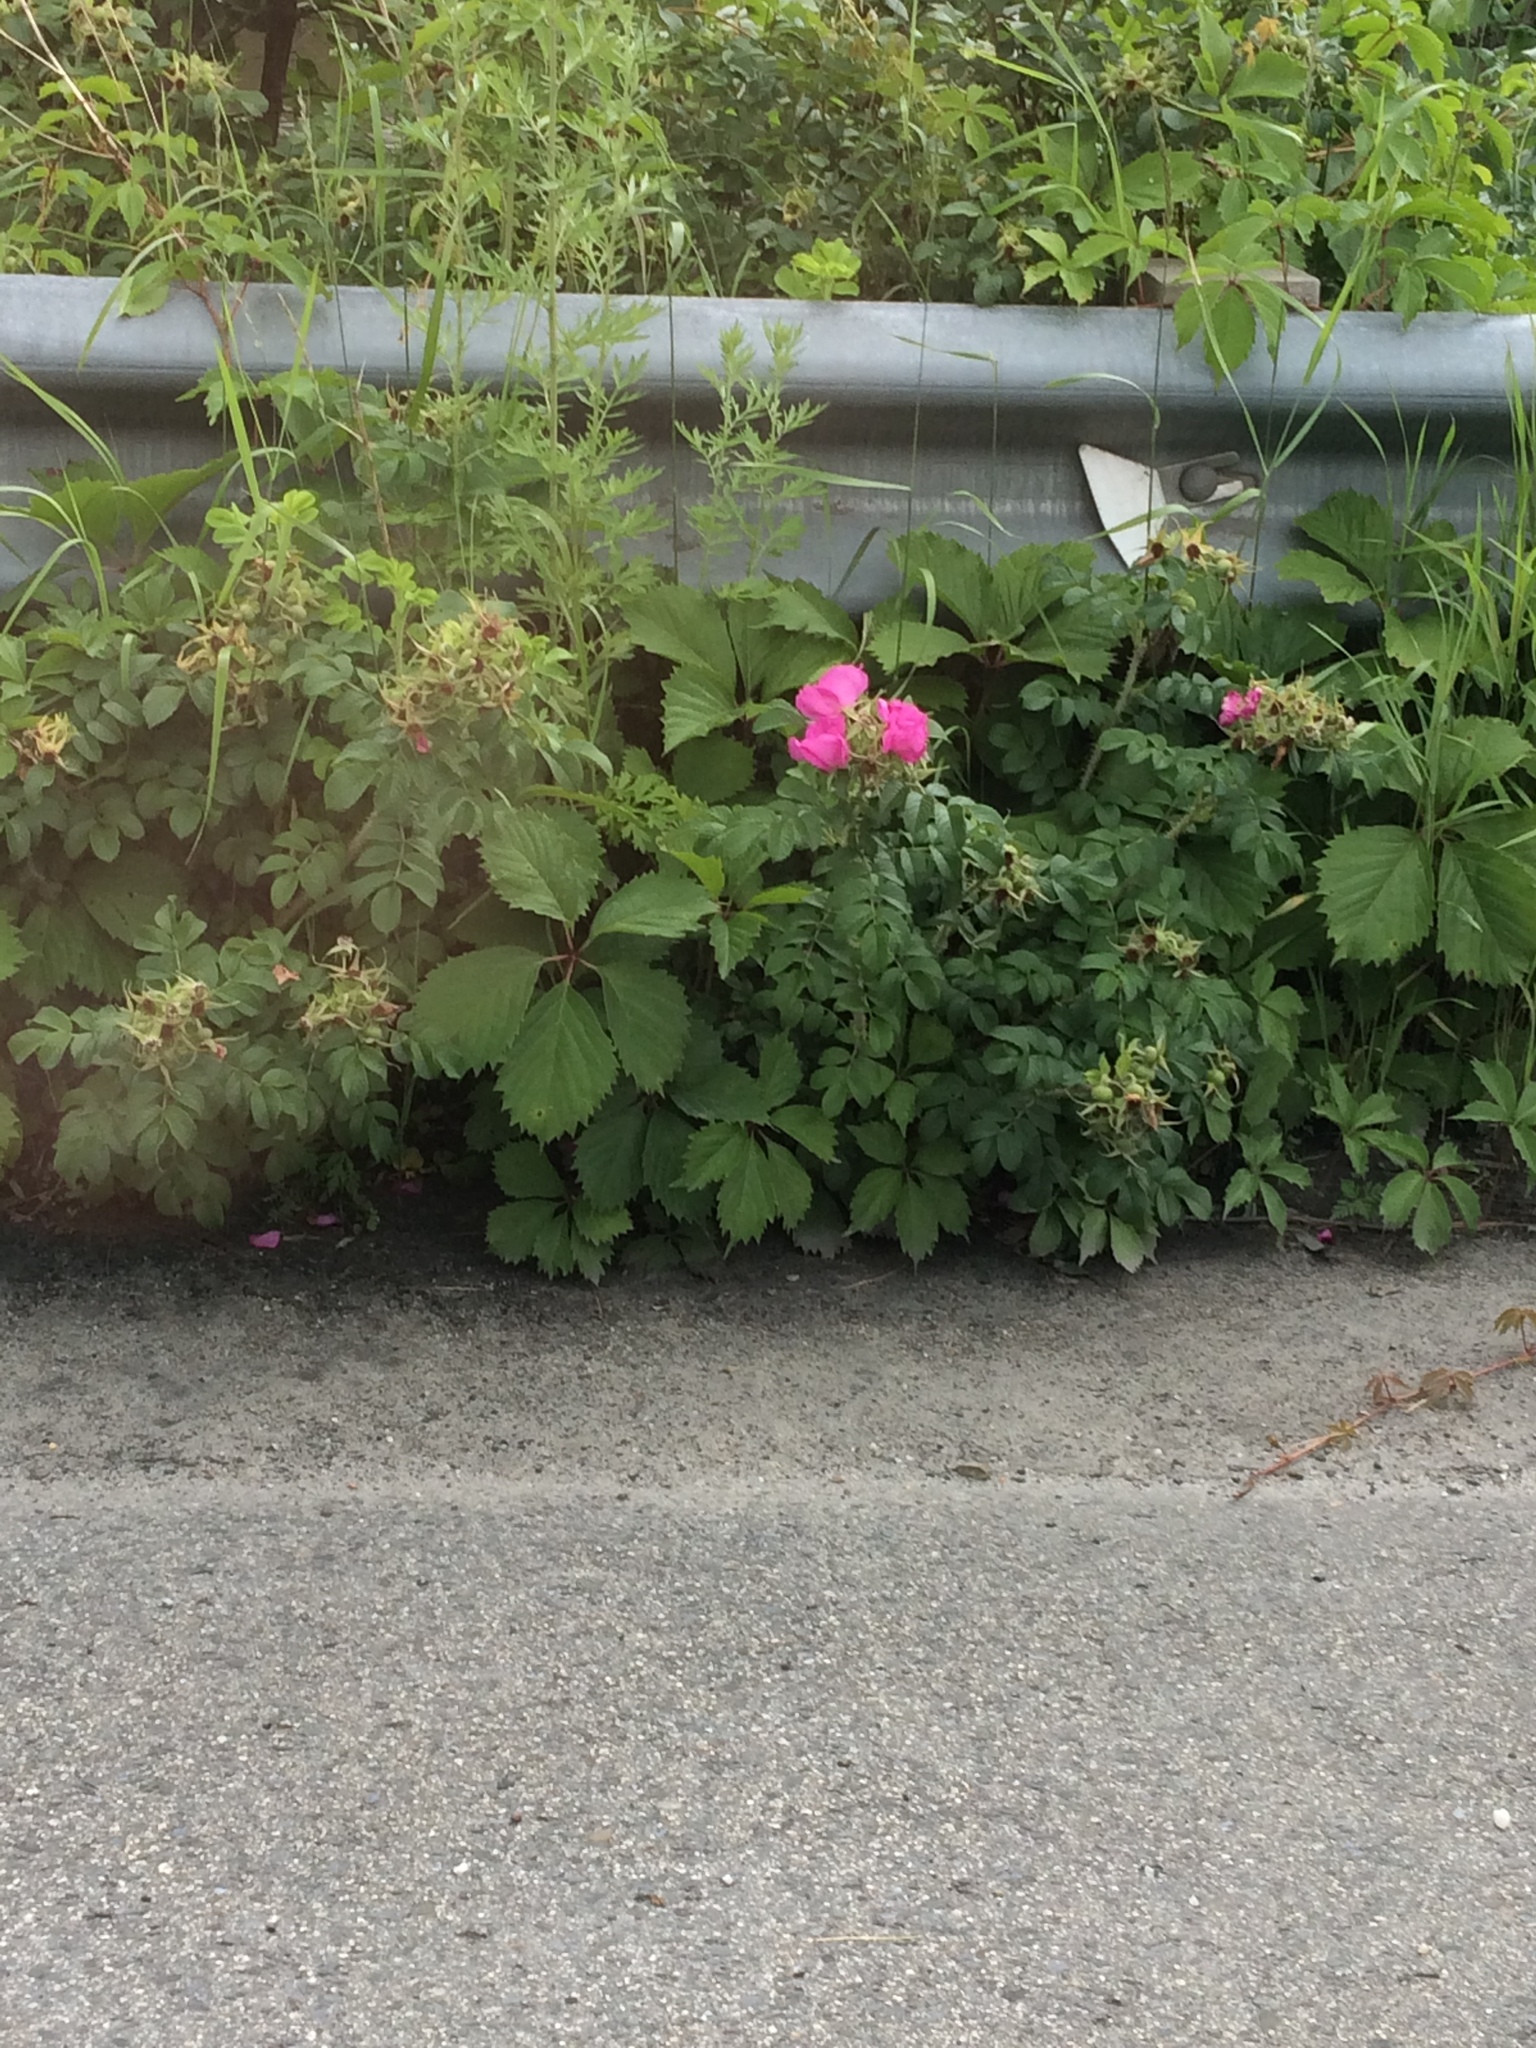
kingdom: Plantae
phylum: Tracheophyta
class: Magnoliopsida
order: Rosales
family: Rosaceae
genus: Rosa
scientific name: Rosa rugosa
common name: Japanese rose
